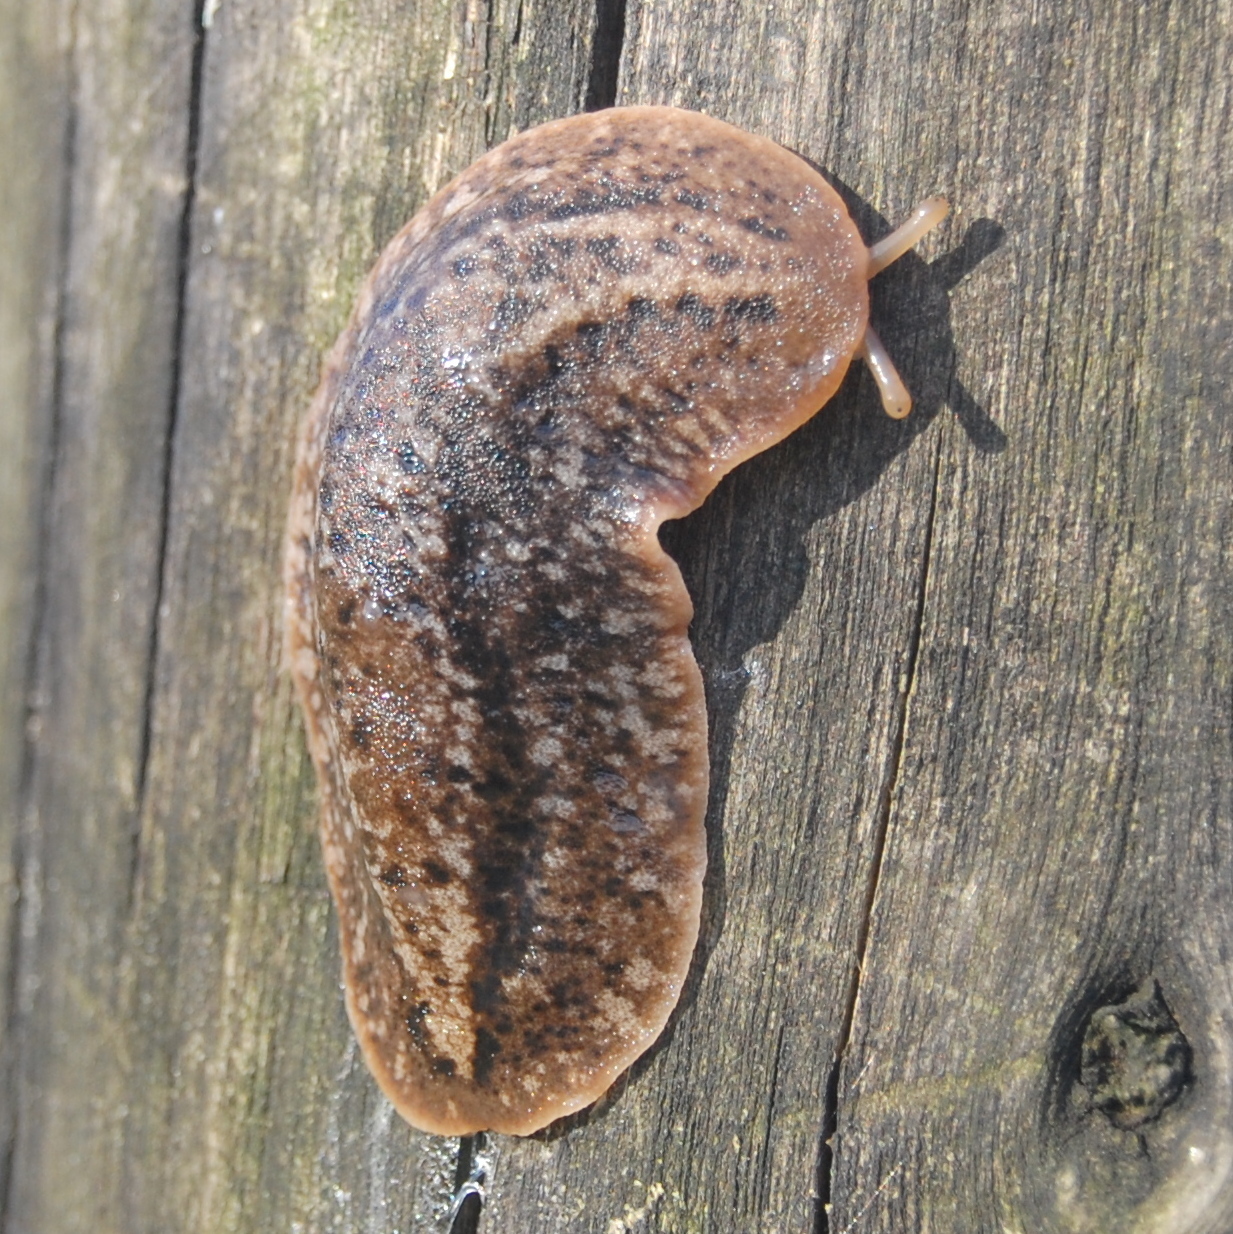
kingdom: Animalia
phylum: Mollusca
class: Gastropoda
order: Systellommatophora
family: Veronicellidae
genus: Phyllocaulis
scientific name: Phyllocaulis soleiformis
